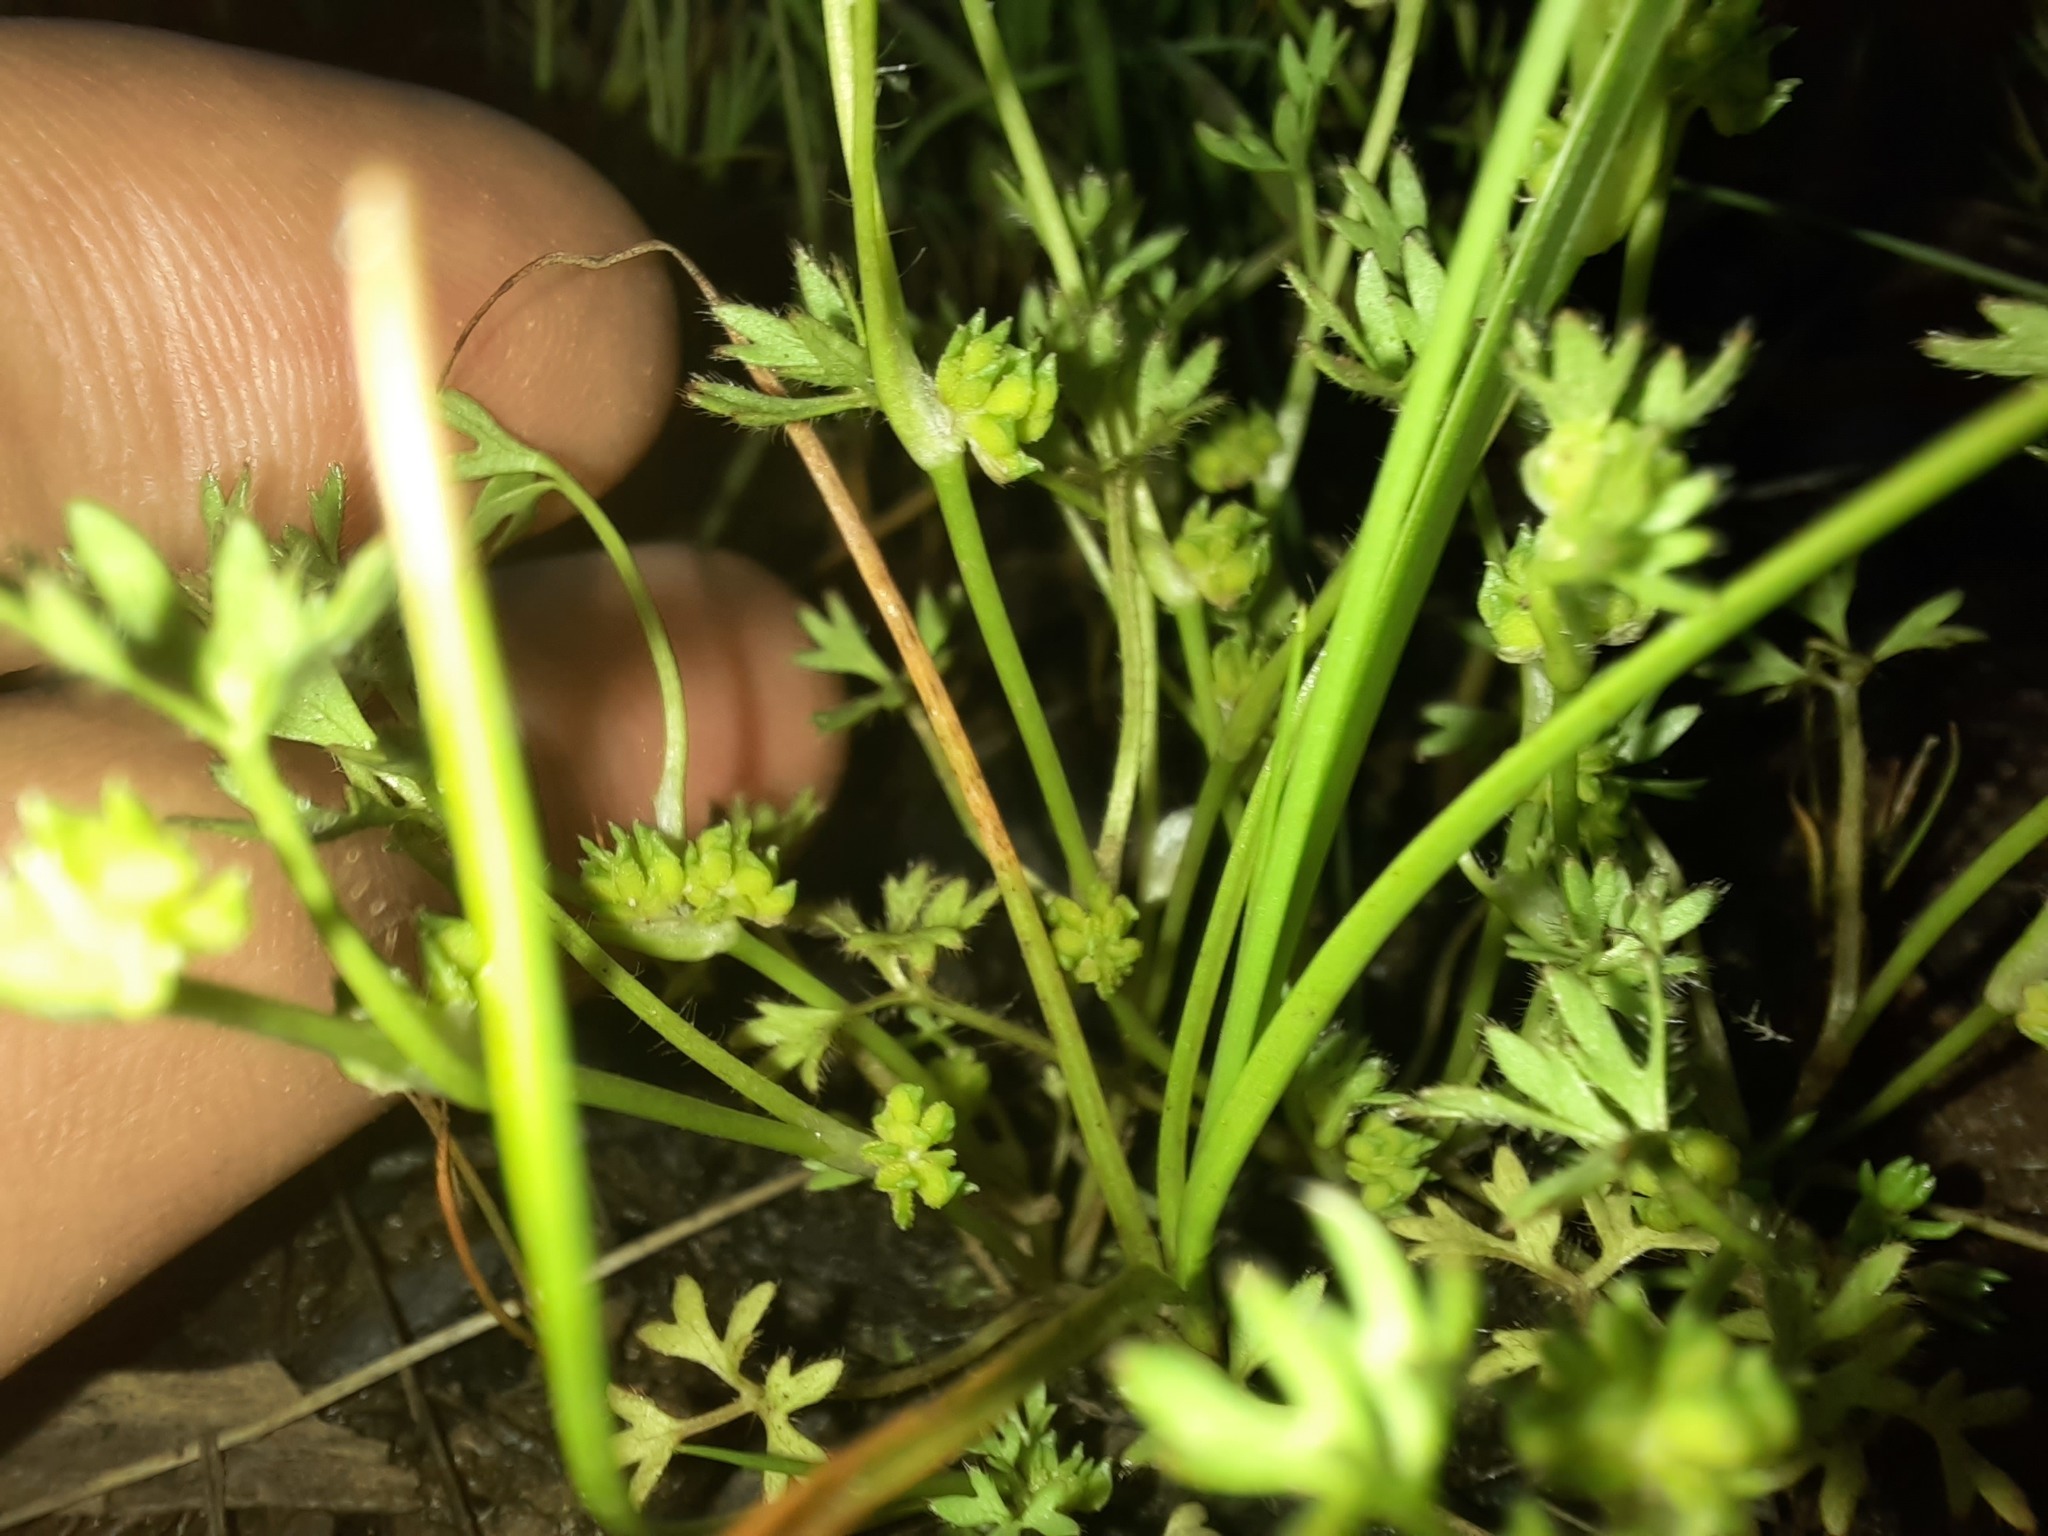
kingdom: Plantae
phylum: Tracheophyta
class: Magnoliopsida
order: Ranunculales
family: Ranunculaceae
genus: Ranunculus
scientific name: Ranunculus sessiliflorus
